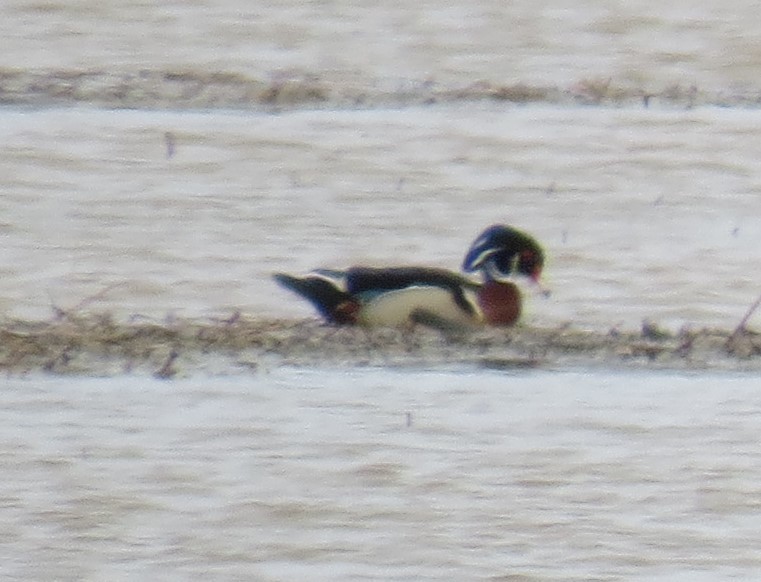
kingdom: Animalia
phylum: Chordata
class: Aves
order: Anseriformes
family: Anatidae
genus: Aix
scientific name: Aix sponsa
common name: Wood duck
